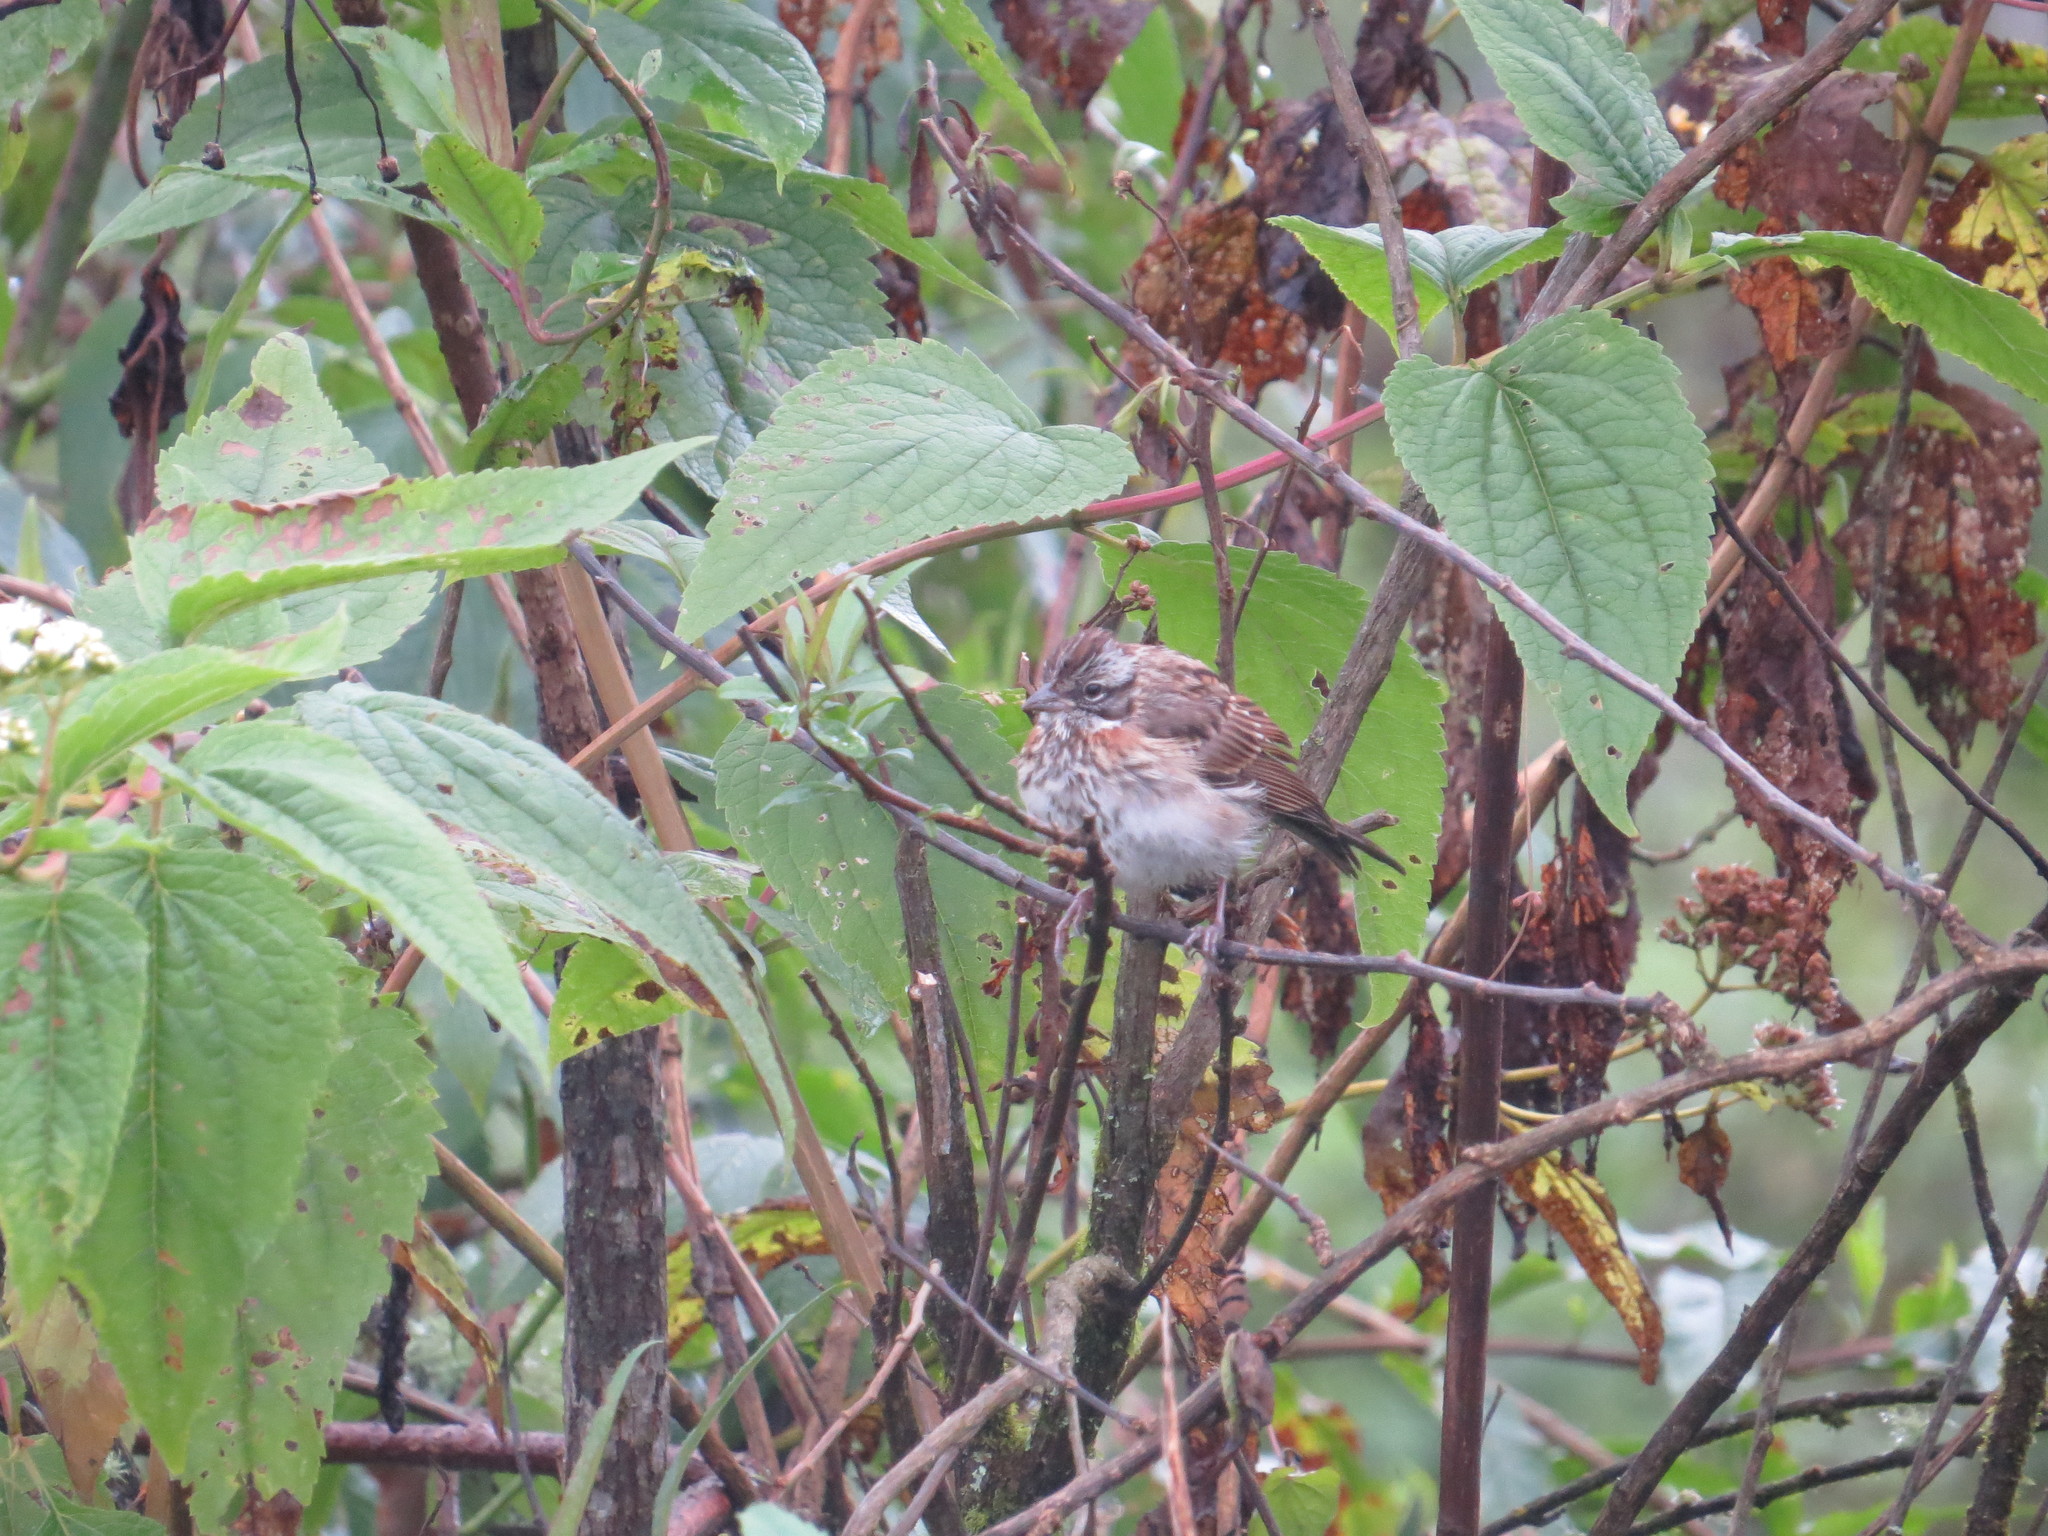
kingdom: Animalia
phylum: Chordata
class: Aves
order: Passeriformes
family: Passerellidae
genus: Zonotrichia
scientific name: Zonotrichia capensis
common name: Rufous-collared sparrow
